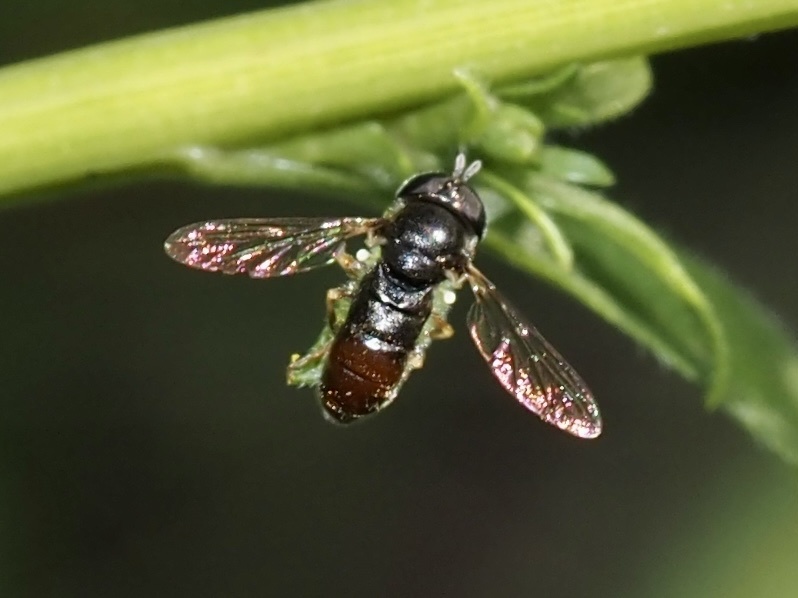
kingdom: Animalia
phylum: Arthropoda
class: Insecta
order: Diptera
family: Syrphidae
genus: Paragus
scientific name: Paragus haemorrhous
